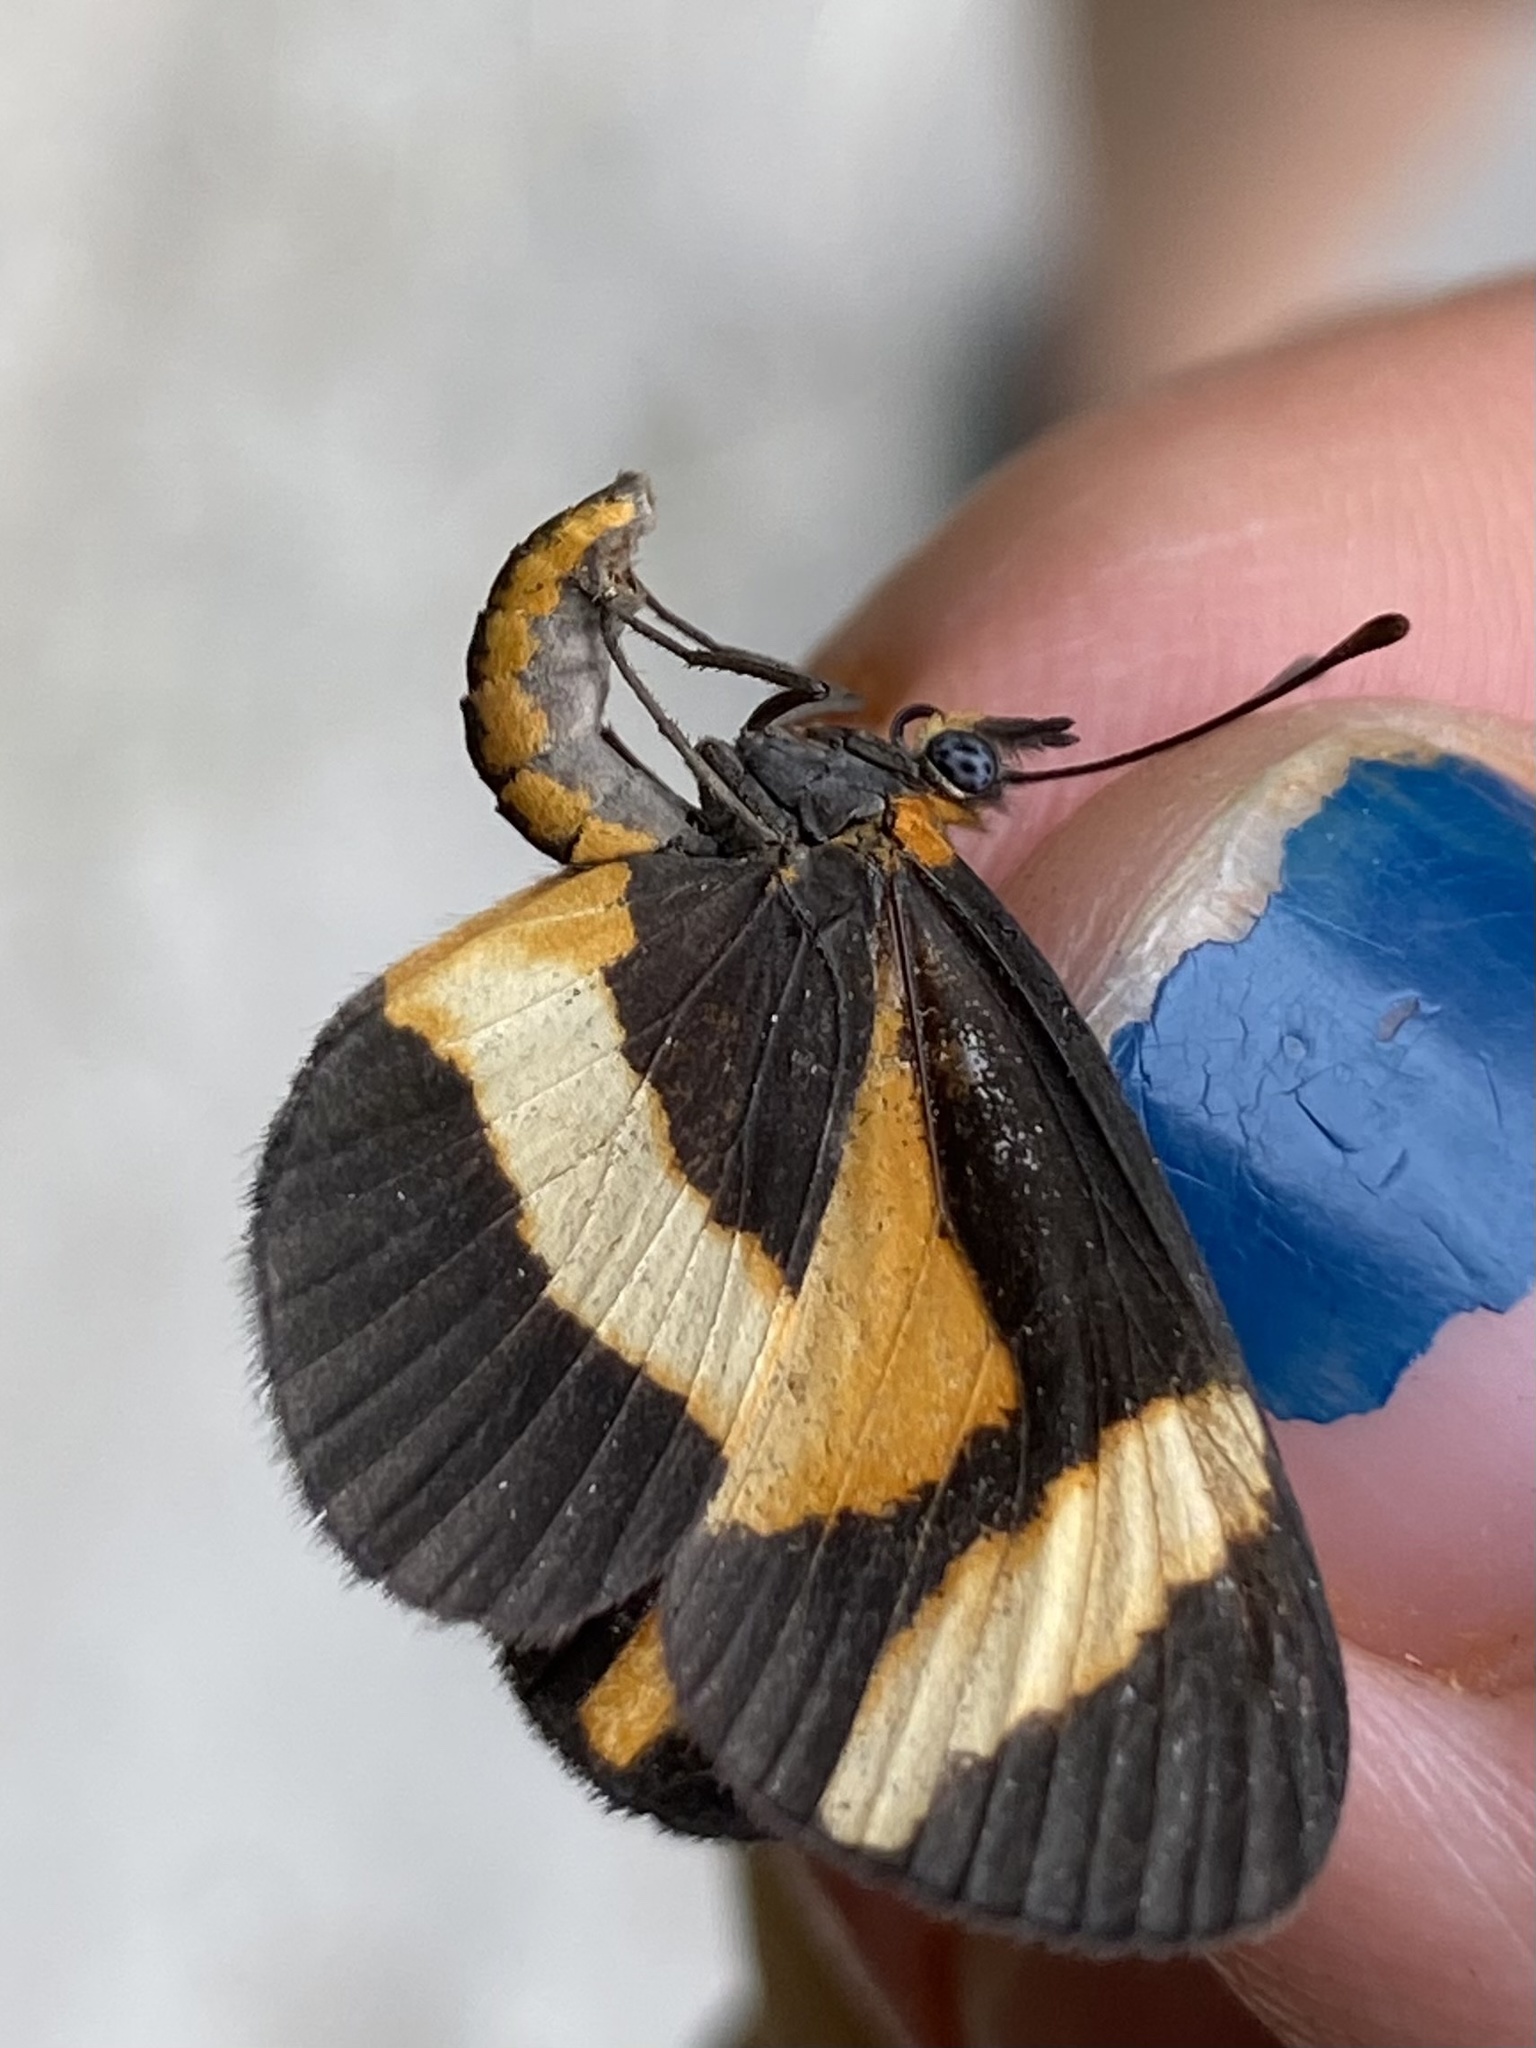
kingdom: Animalia
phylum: Arthropoda
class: Insecta
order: Lepidoptera
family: Nymphalidae
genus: Microtia
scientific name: Microtia elva
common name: Elf
